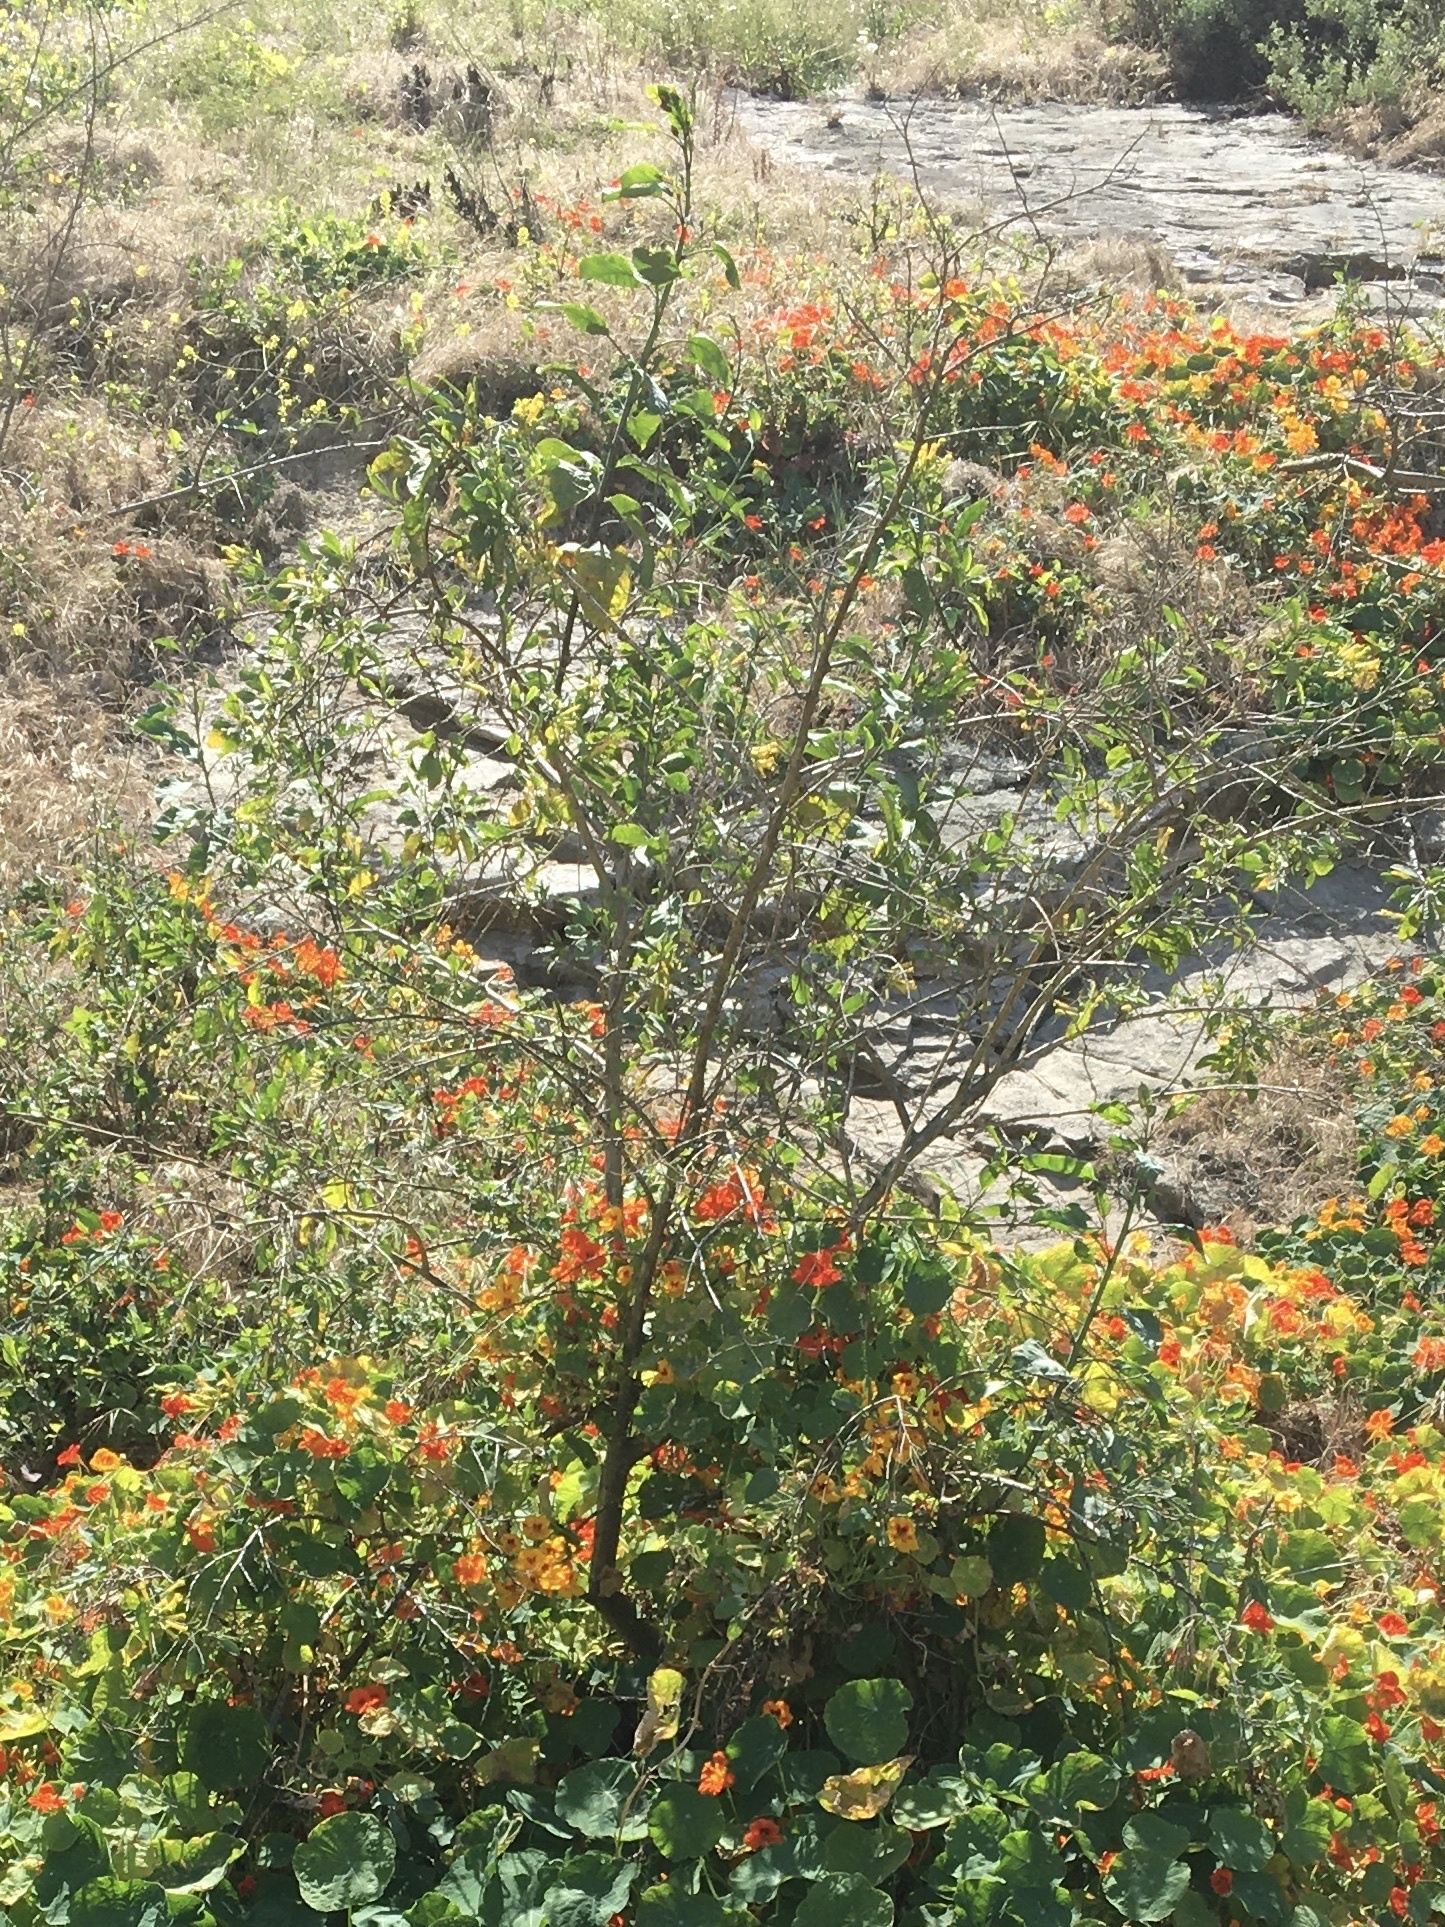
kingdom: Plantae
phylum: Tracheophyta
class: Magnoliopsida
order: Solanales
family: Solanaceae
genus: Nicotiana
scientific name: Nicotiana glauca
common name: Tree tobacco
